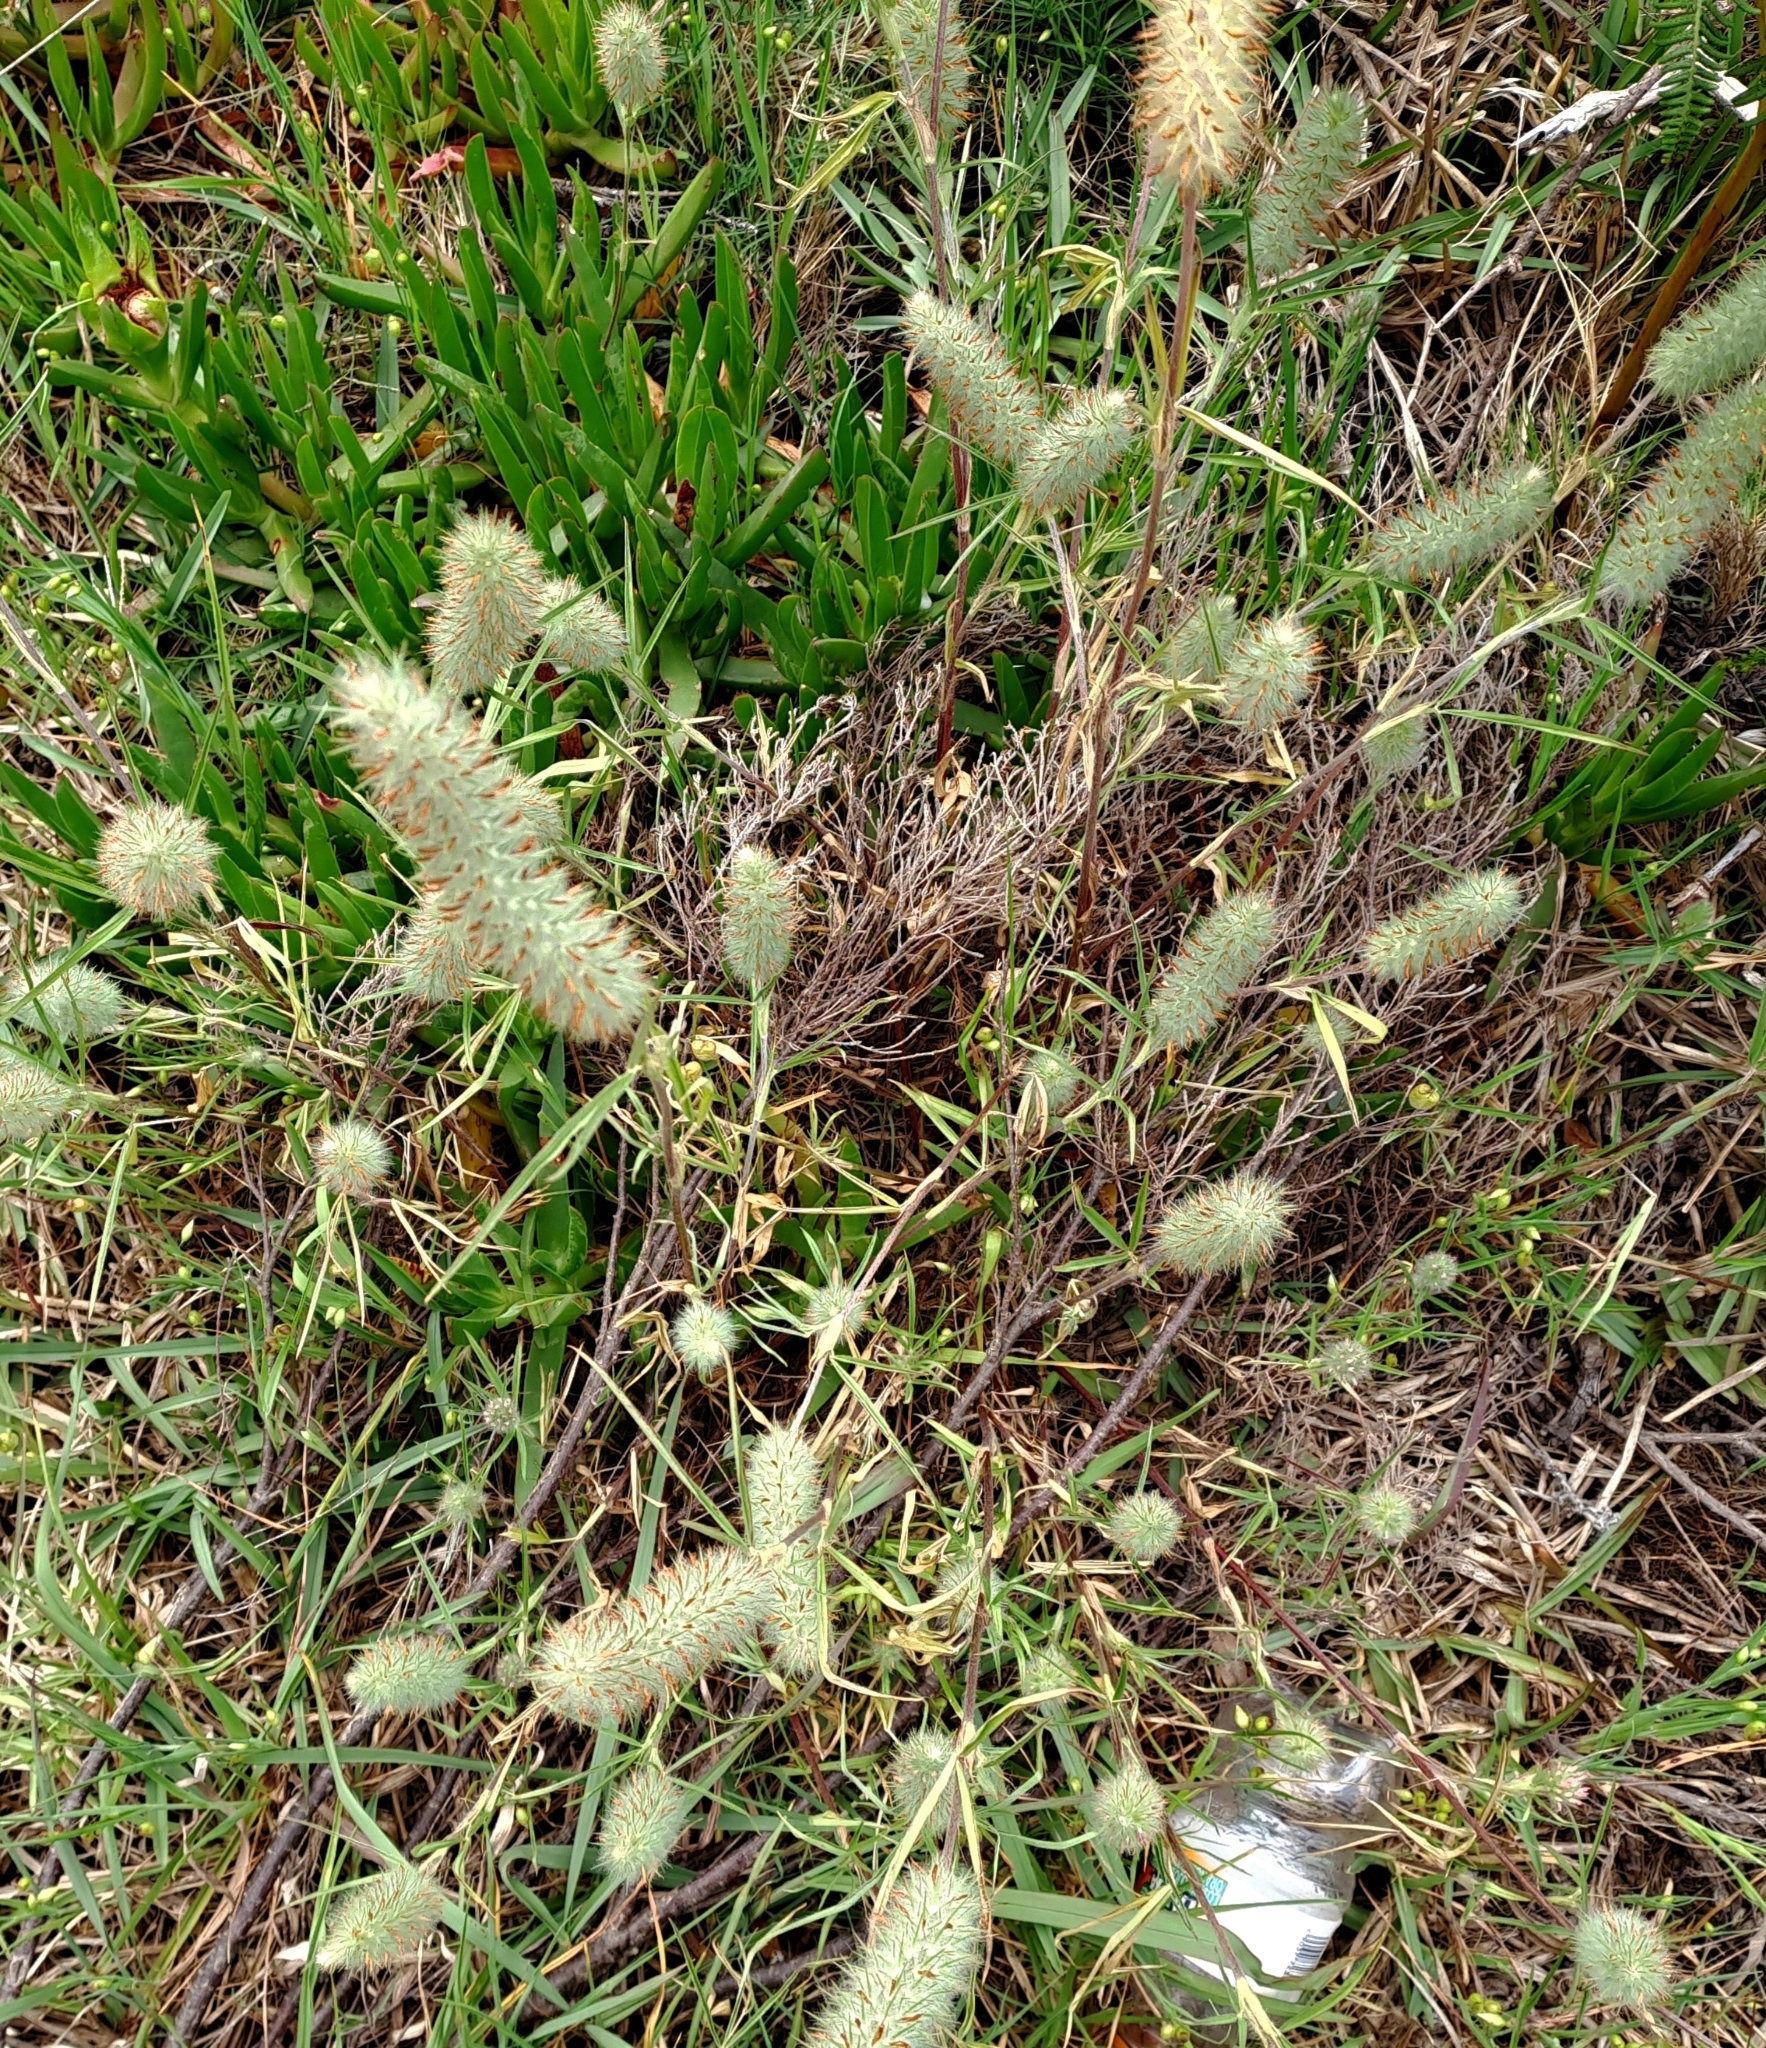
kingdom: Plantae
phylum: Tracheophyta
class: Magnoliopsida
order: Fabales
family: Fabaceae
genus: Trifolium
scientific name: Trifolium angustifolium
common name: Narrow clover
